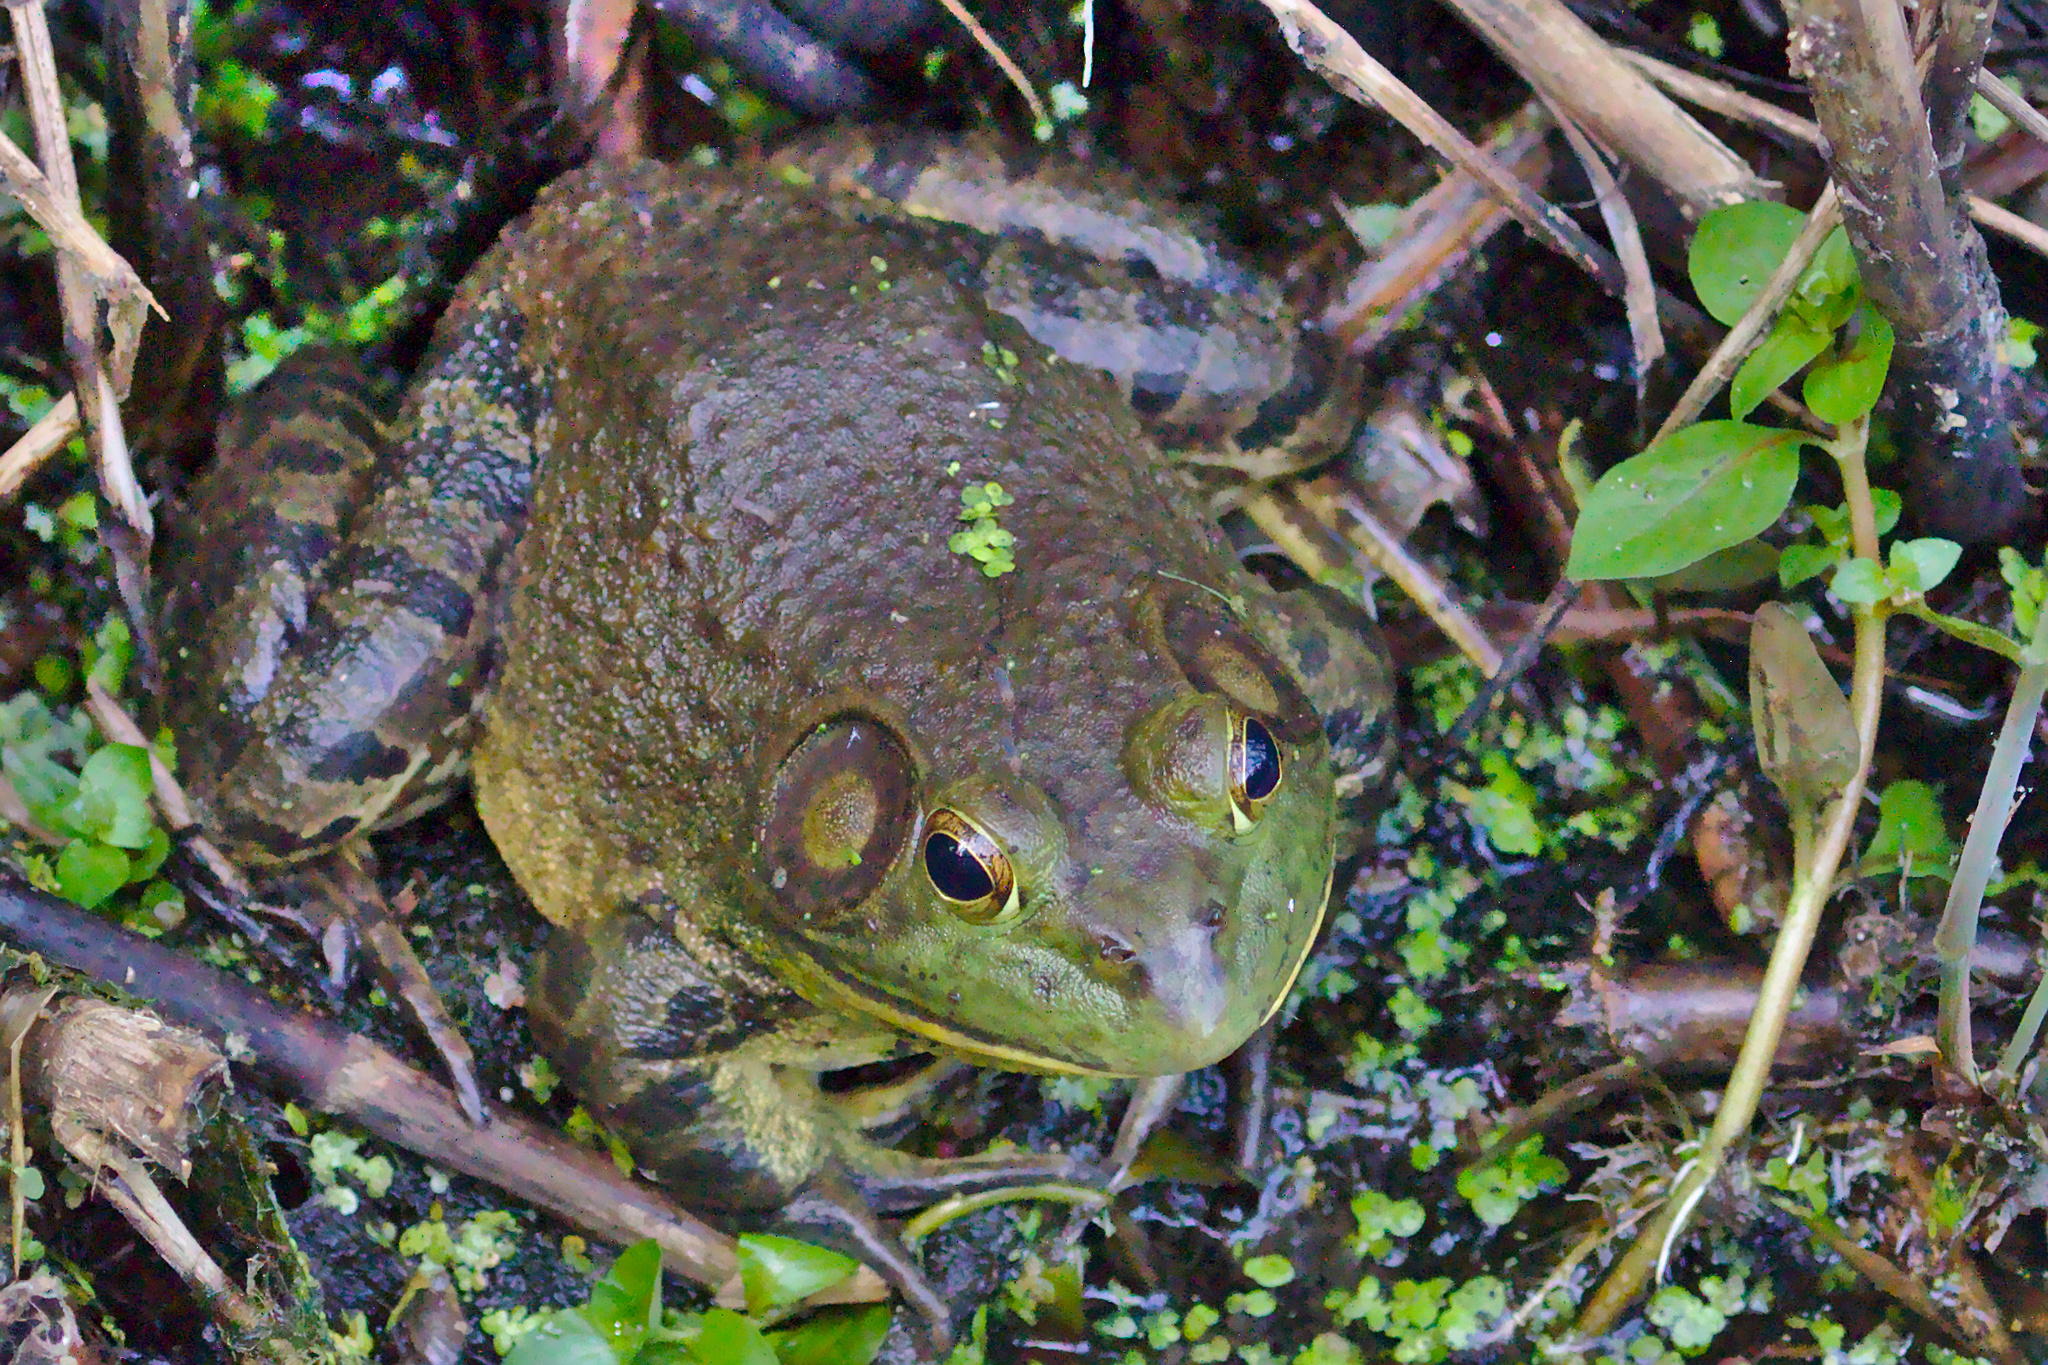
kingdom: Animalia
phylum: Chordata
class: Amphibia
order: Anura
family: Ranidae
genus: Lithobates
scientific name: Lithobates catesbeianus
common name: American bullfrog
